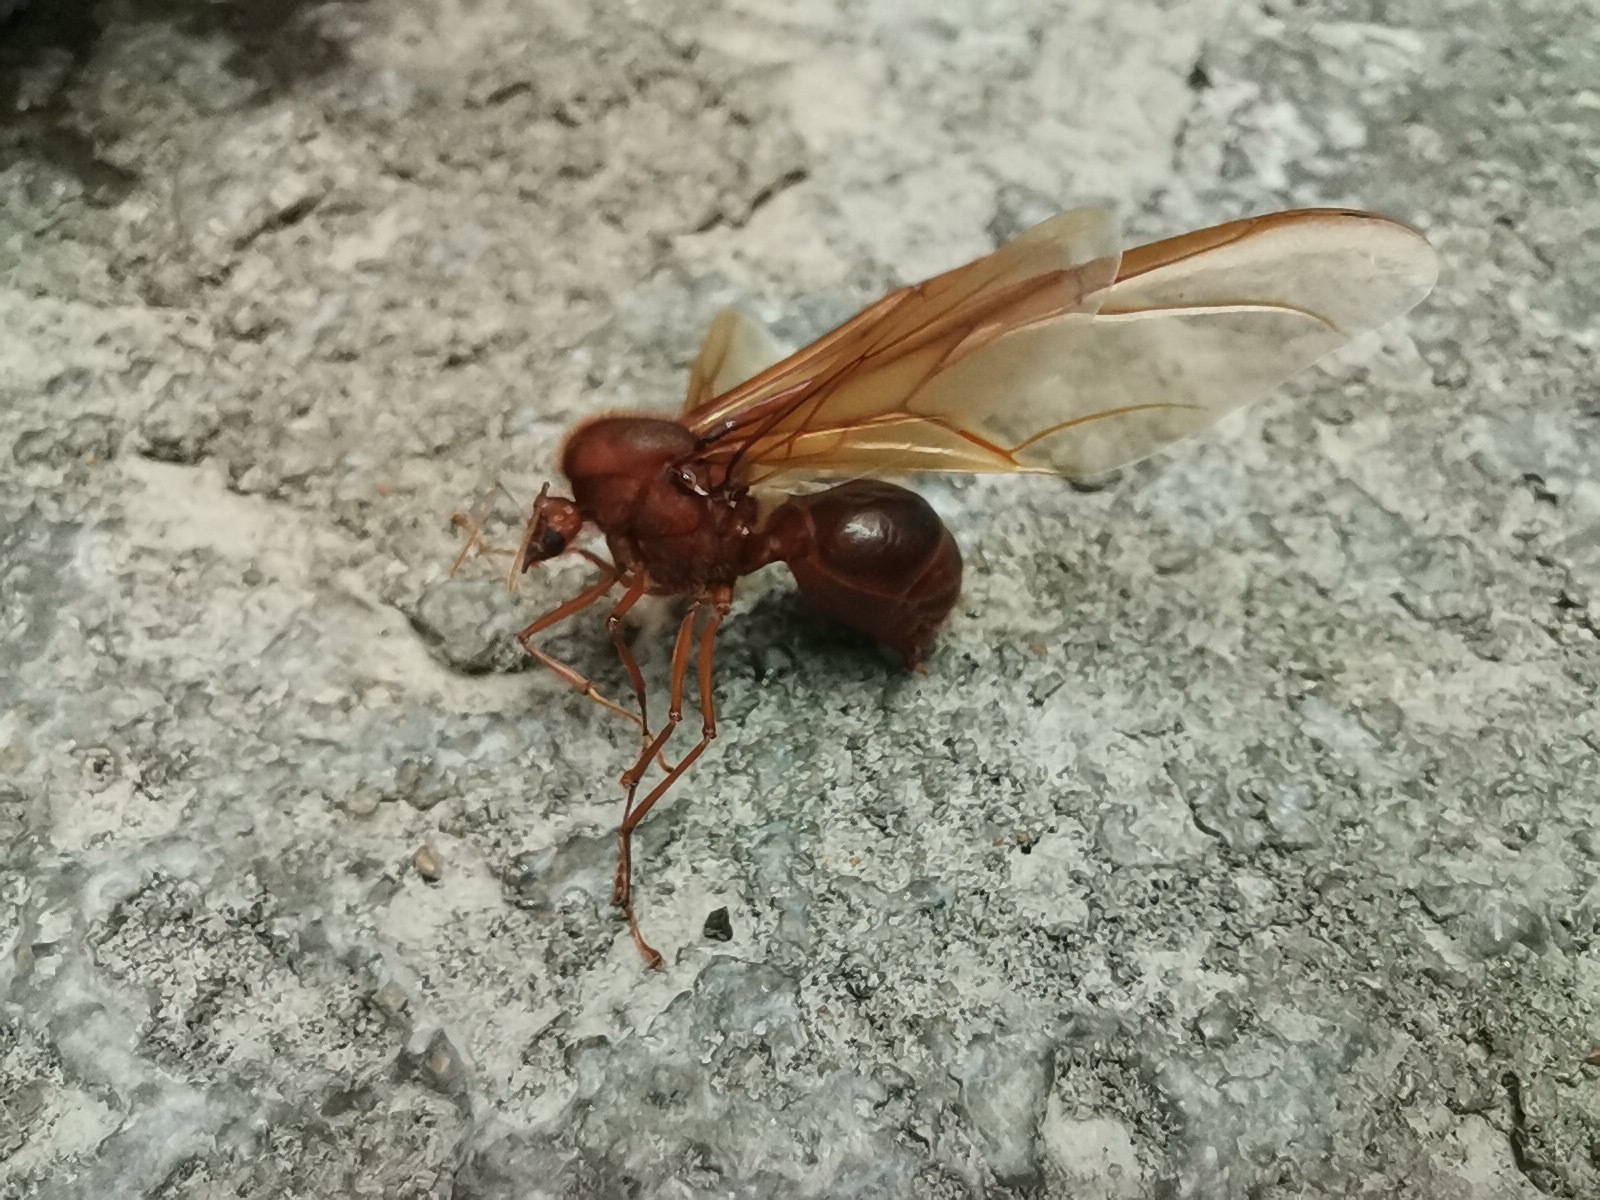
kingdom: Animalia
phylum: Arthropoda
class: Insecta
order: Hymenoptera
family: Formicidae
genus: Atta
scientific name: Atta mexicana
